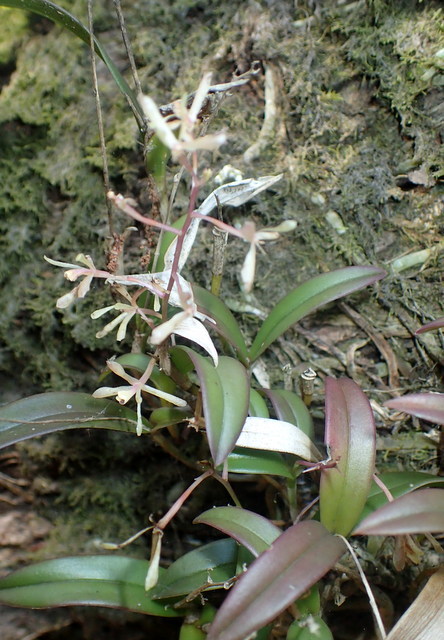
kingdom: Plantae
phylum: Tracheophyta
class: Liliopsida
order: Asparagales
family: Orchidaceae
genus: Epidendrum
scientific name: Epidendrum conopseum
